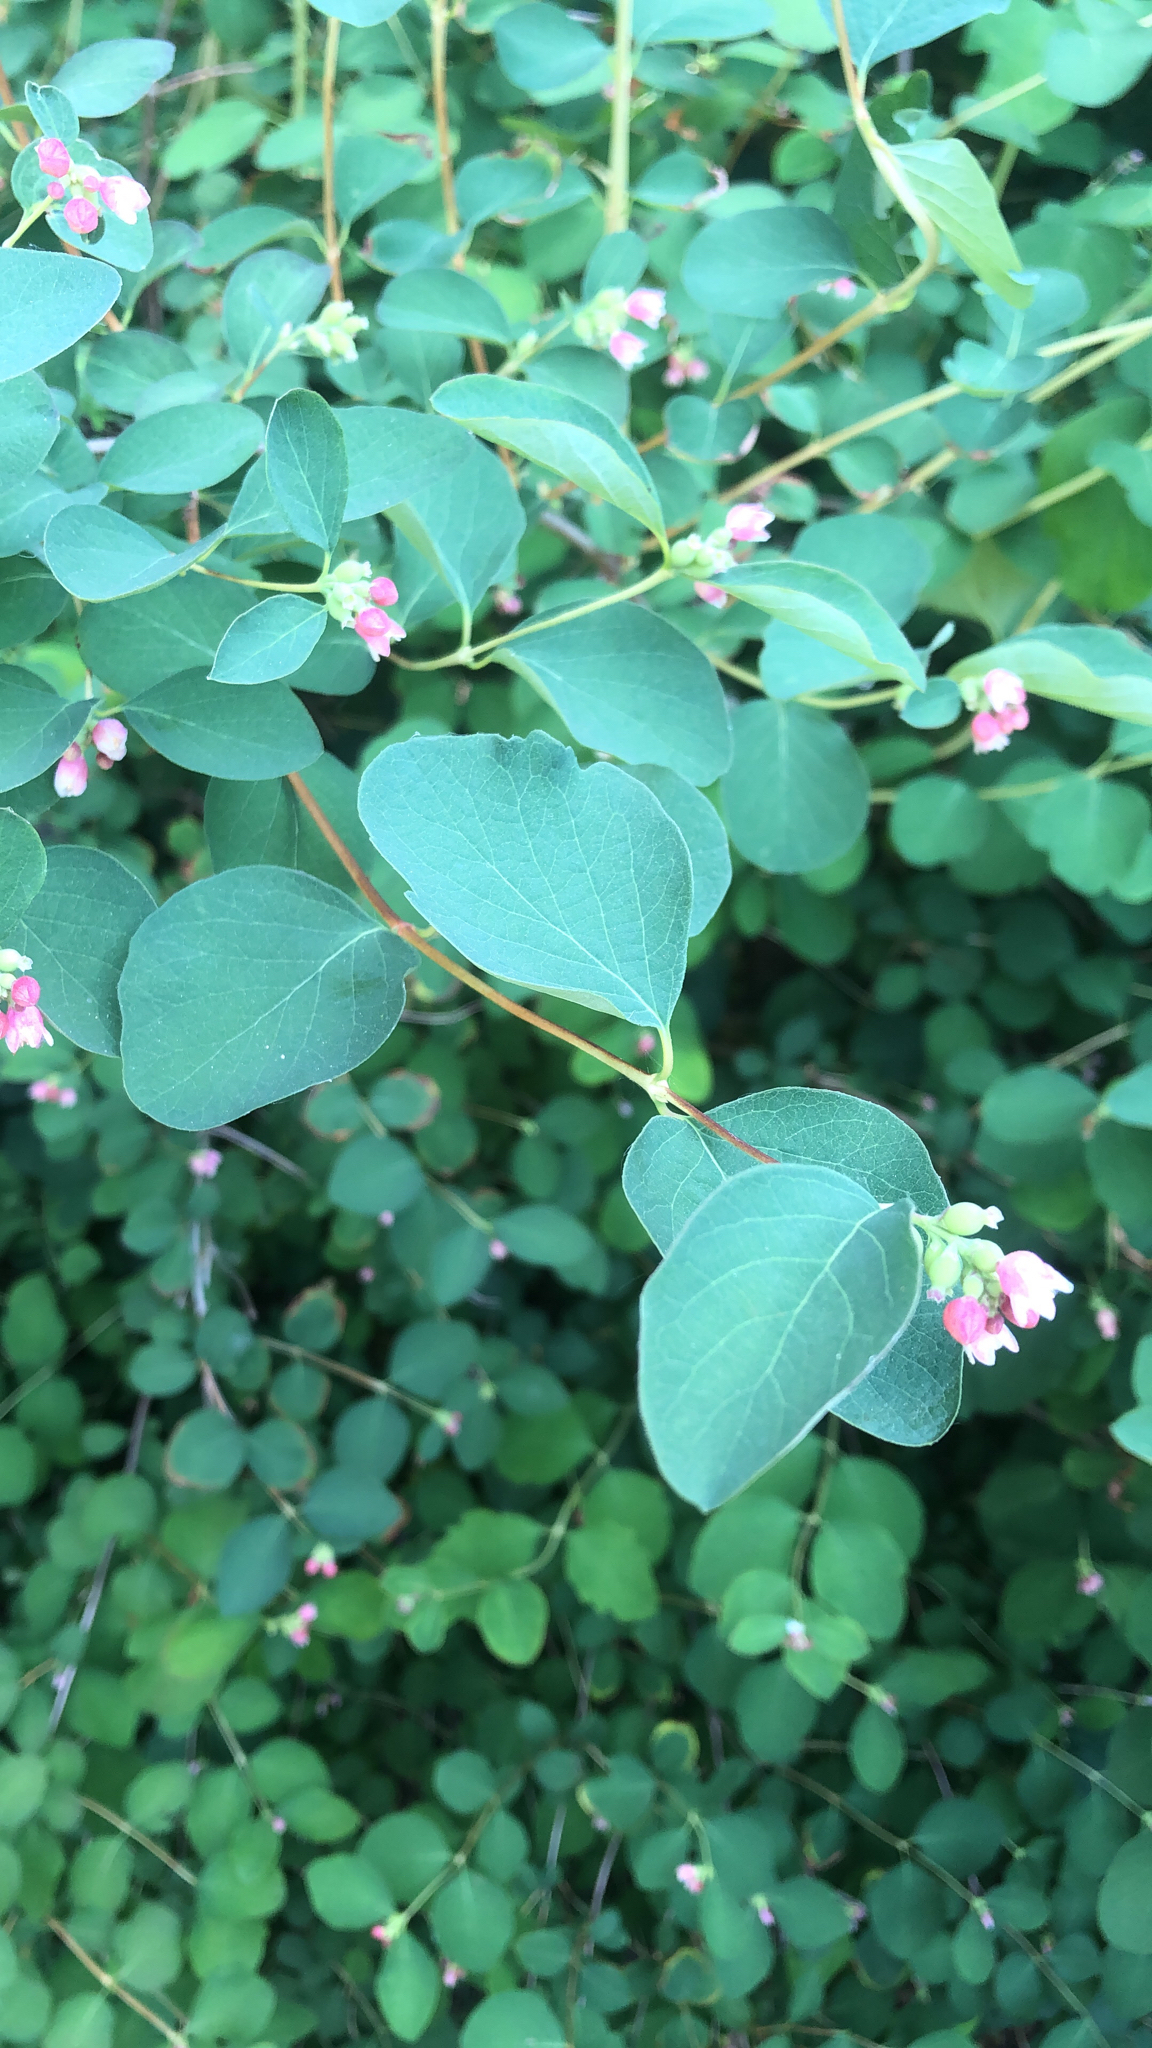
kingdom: Plantae
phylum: Tracheophyta
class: Magnoliopsida
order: Dipsacales
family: Caprifoliaceae
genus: Symphoricarpos
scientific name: Symphoricarpos albus
